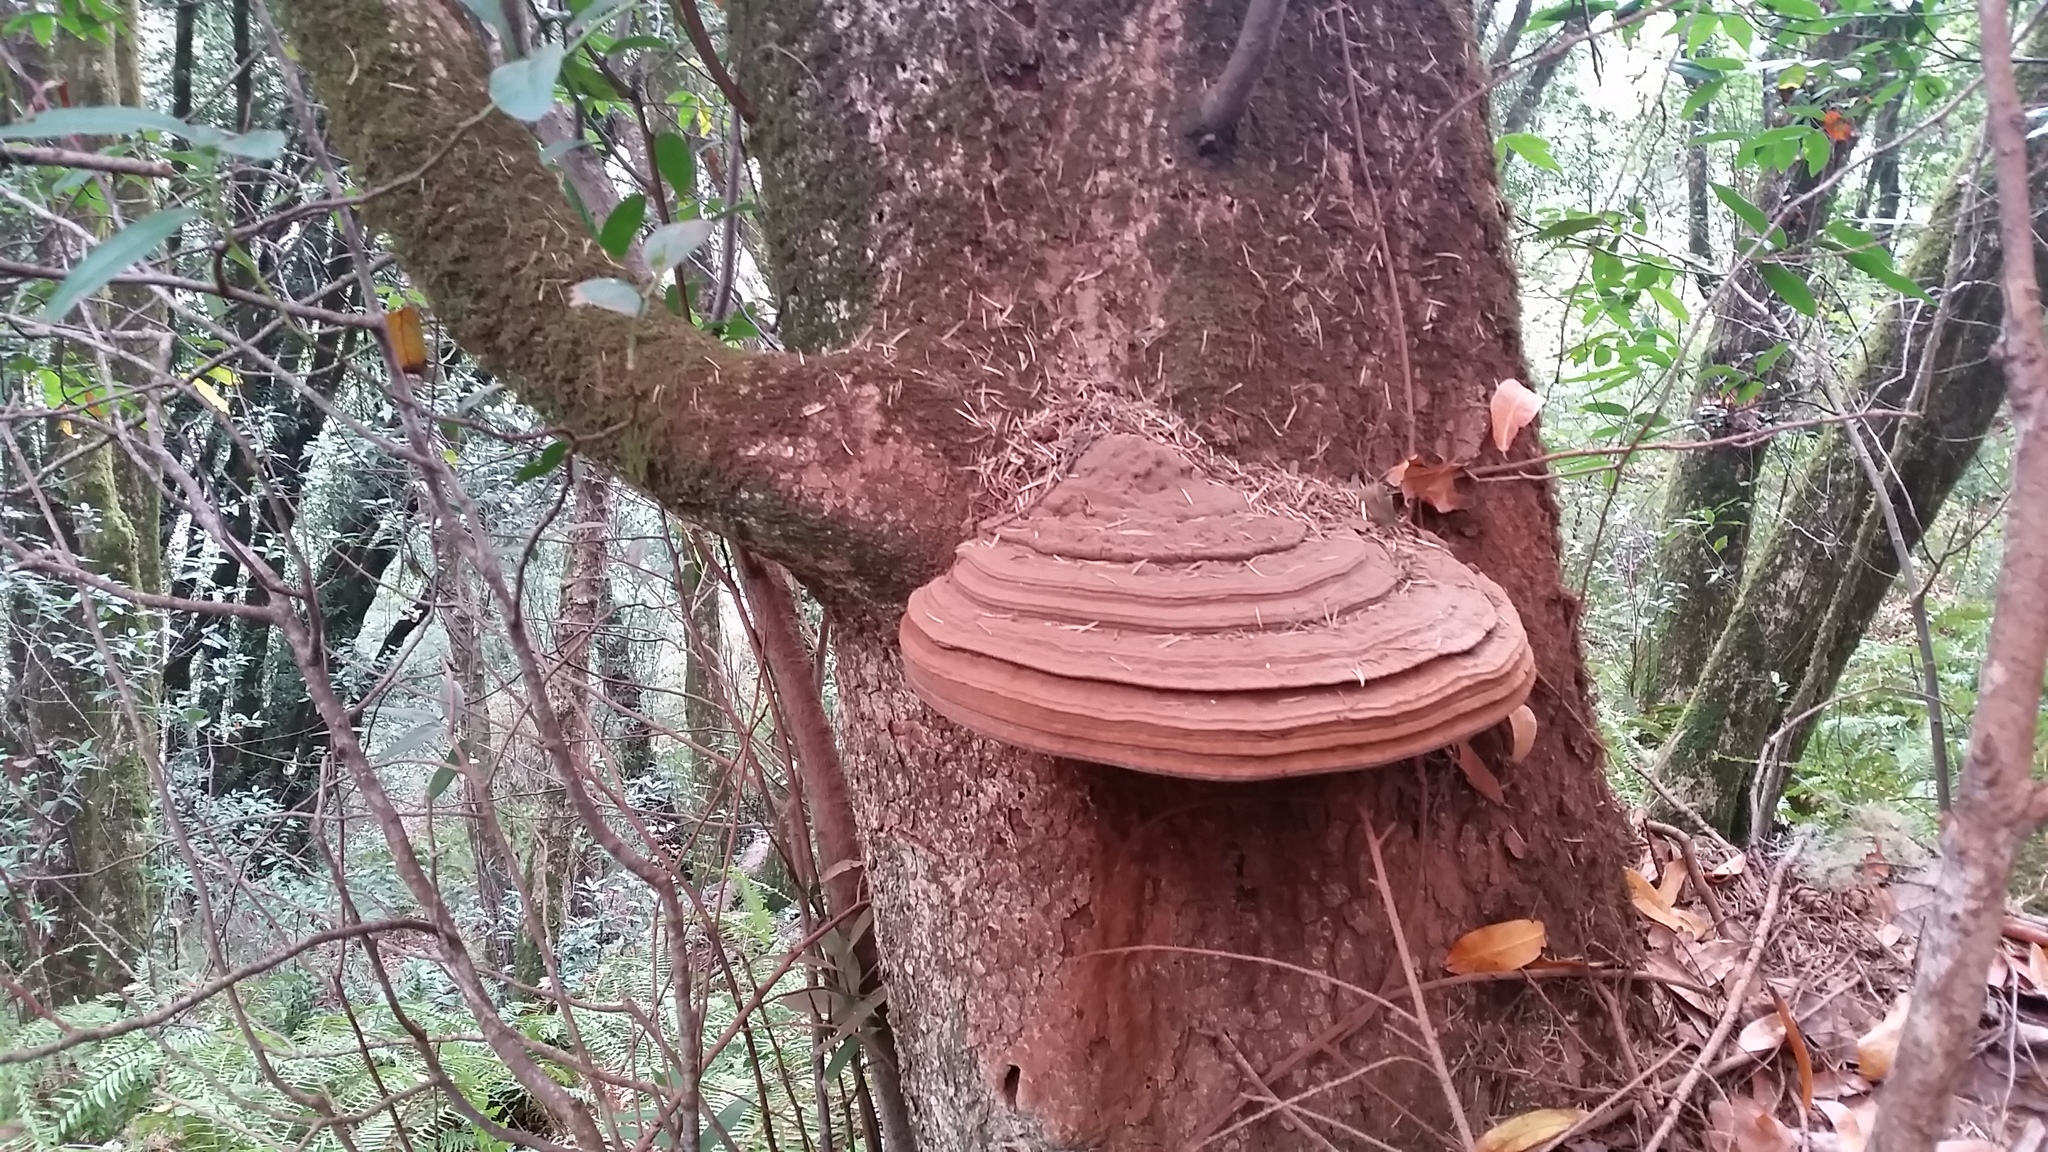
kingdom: Fungi
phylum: Basidiomycota
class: Agaricomycetes
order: Polyporales
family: Polyporaceae
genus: Ganoderma
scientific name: Ganoderma brownii
